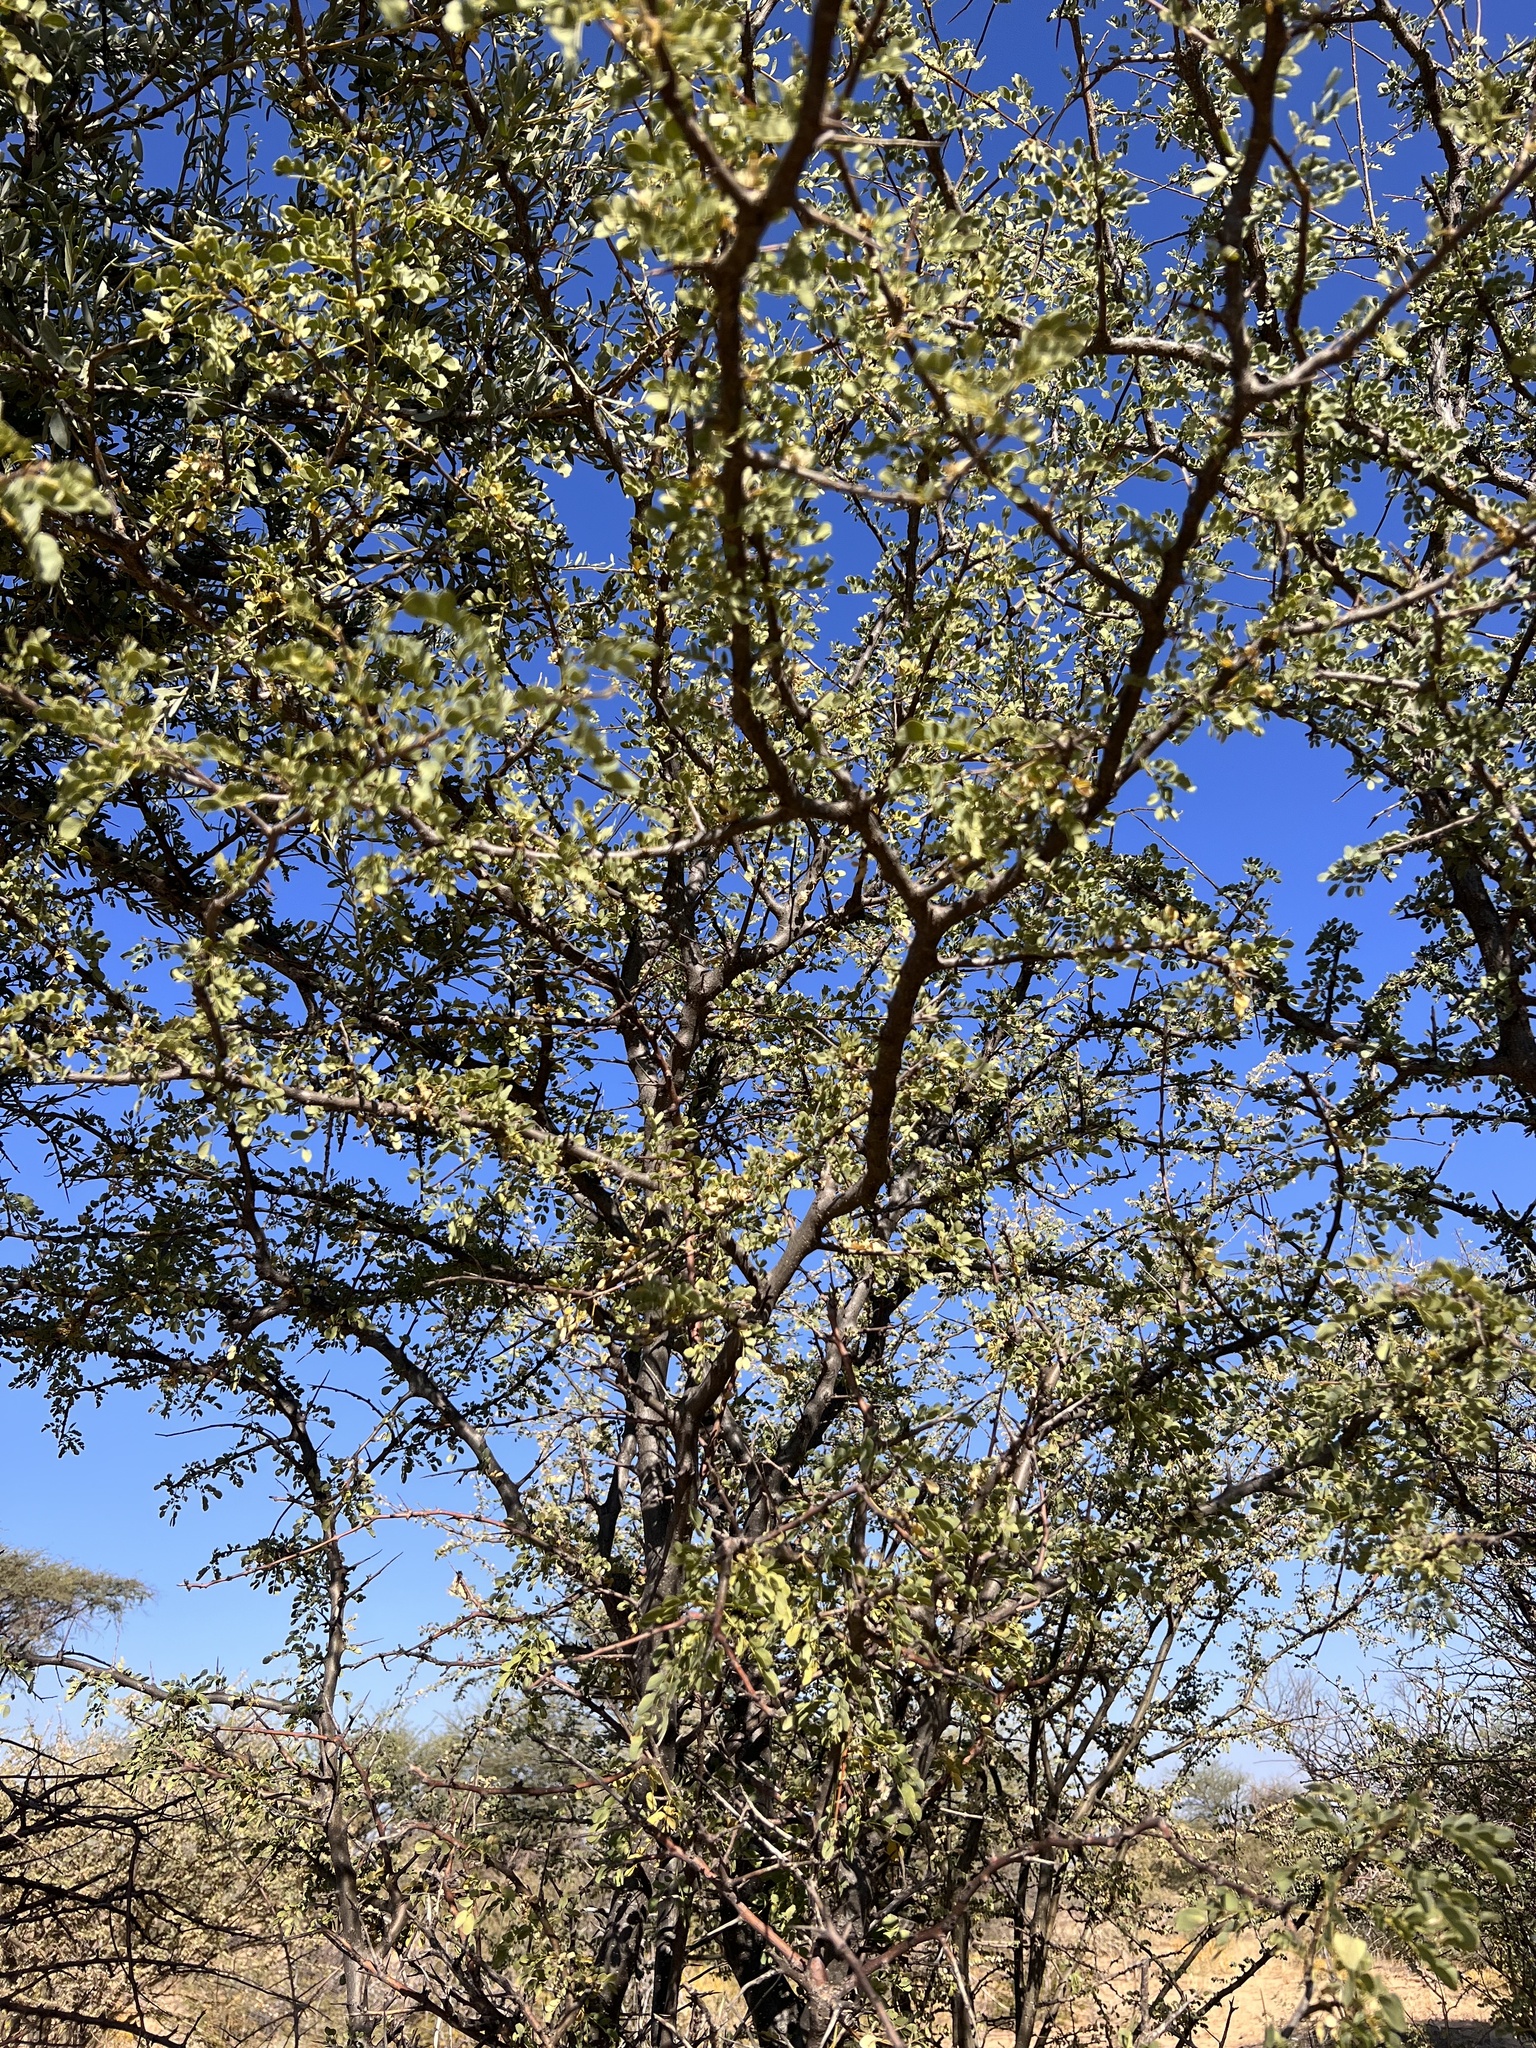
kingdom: Plantae
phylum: Tracheophyta
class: Magnoliopsida
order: Fabales
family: Fabaceae
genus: Albizia
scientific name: Albizia anthelmintica
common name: Worm-bark false-thorn
